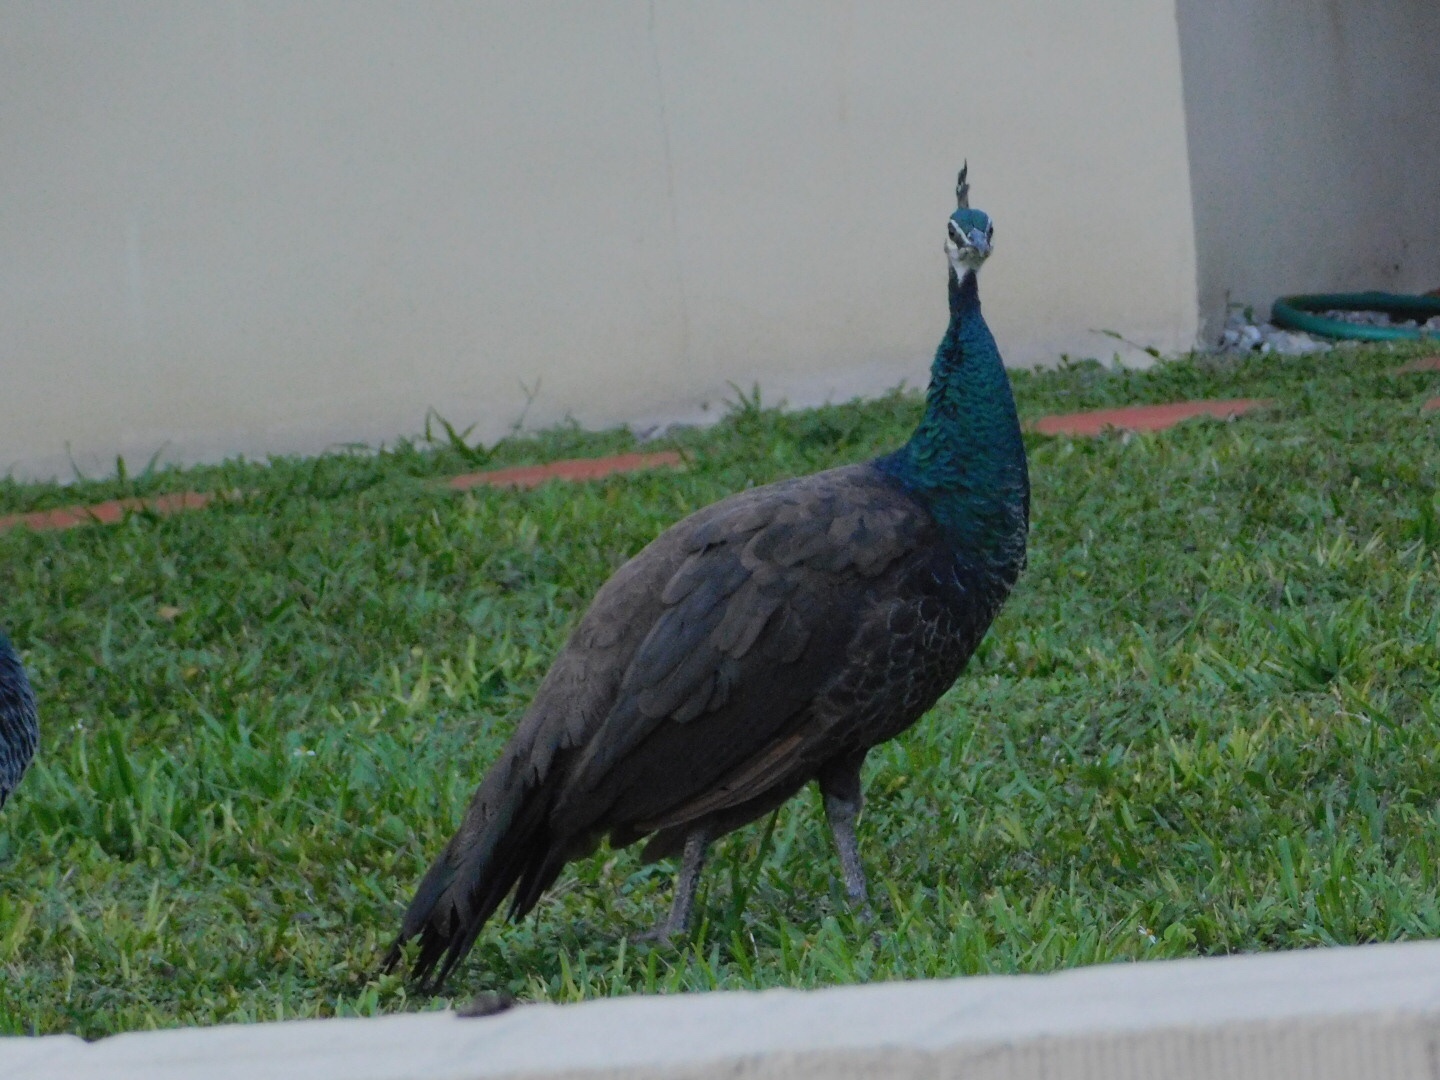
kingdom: Animalia
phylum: Chordata
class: Aves
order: Galliformes
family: Phasianidae
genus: Pavo
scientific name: Pavo cristatus
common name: Indian peafowl
